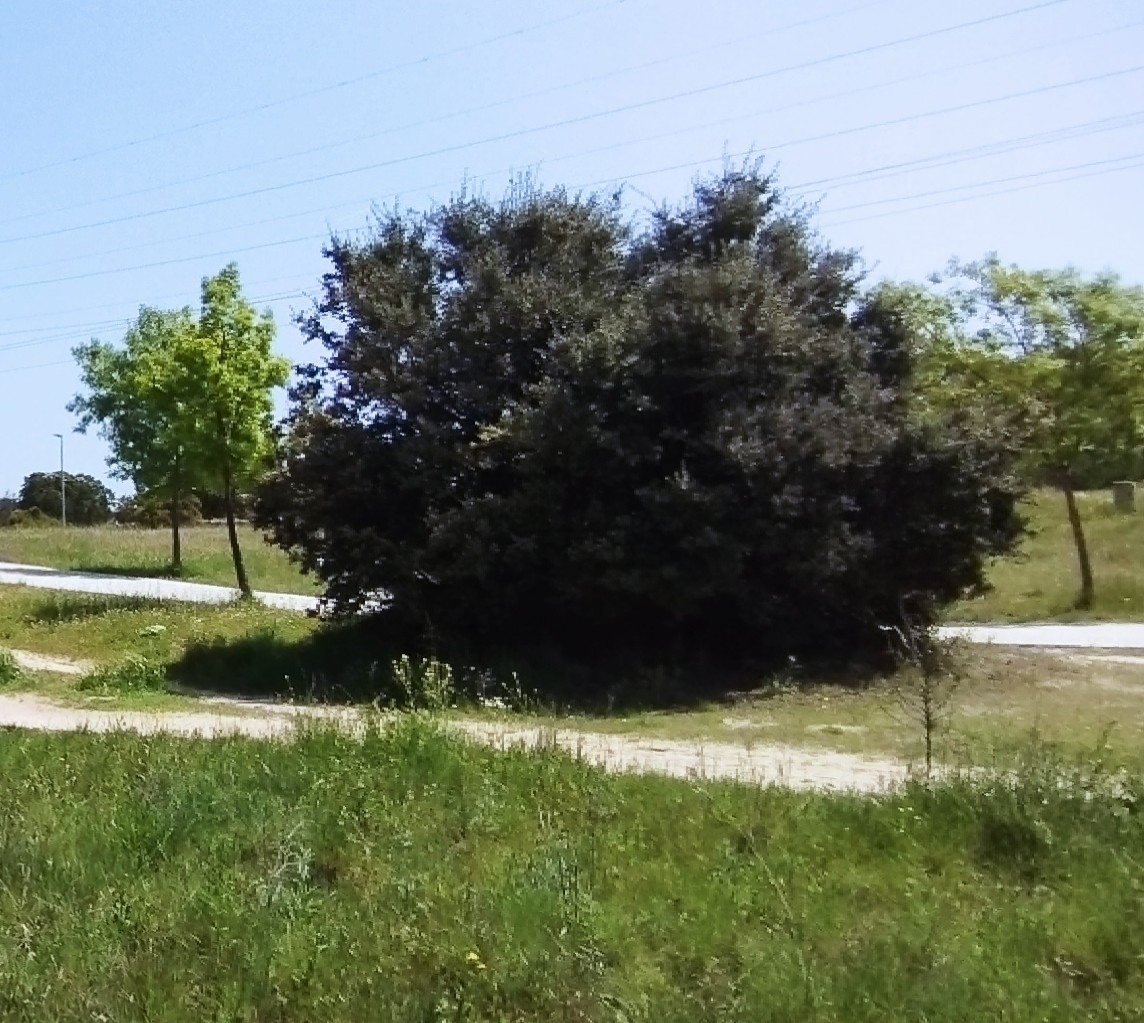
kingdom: Plantae
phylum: Tracheophyta
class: Magnoliopsida
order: Fagales
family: Fagaceae
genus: Quercus
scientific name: Quercus rotundifolia
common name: Holm oak
